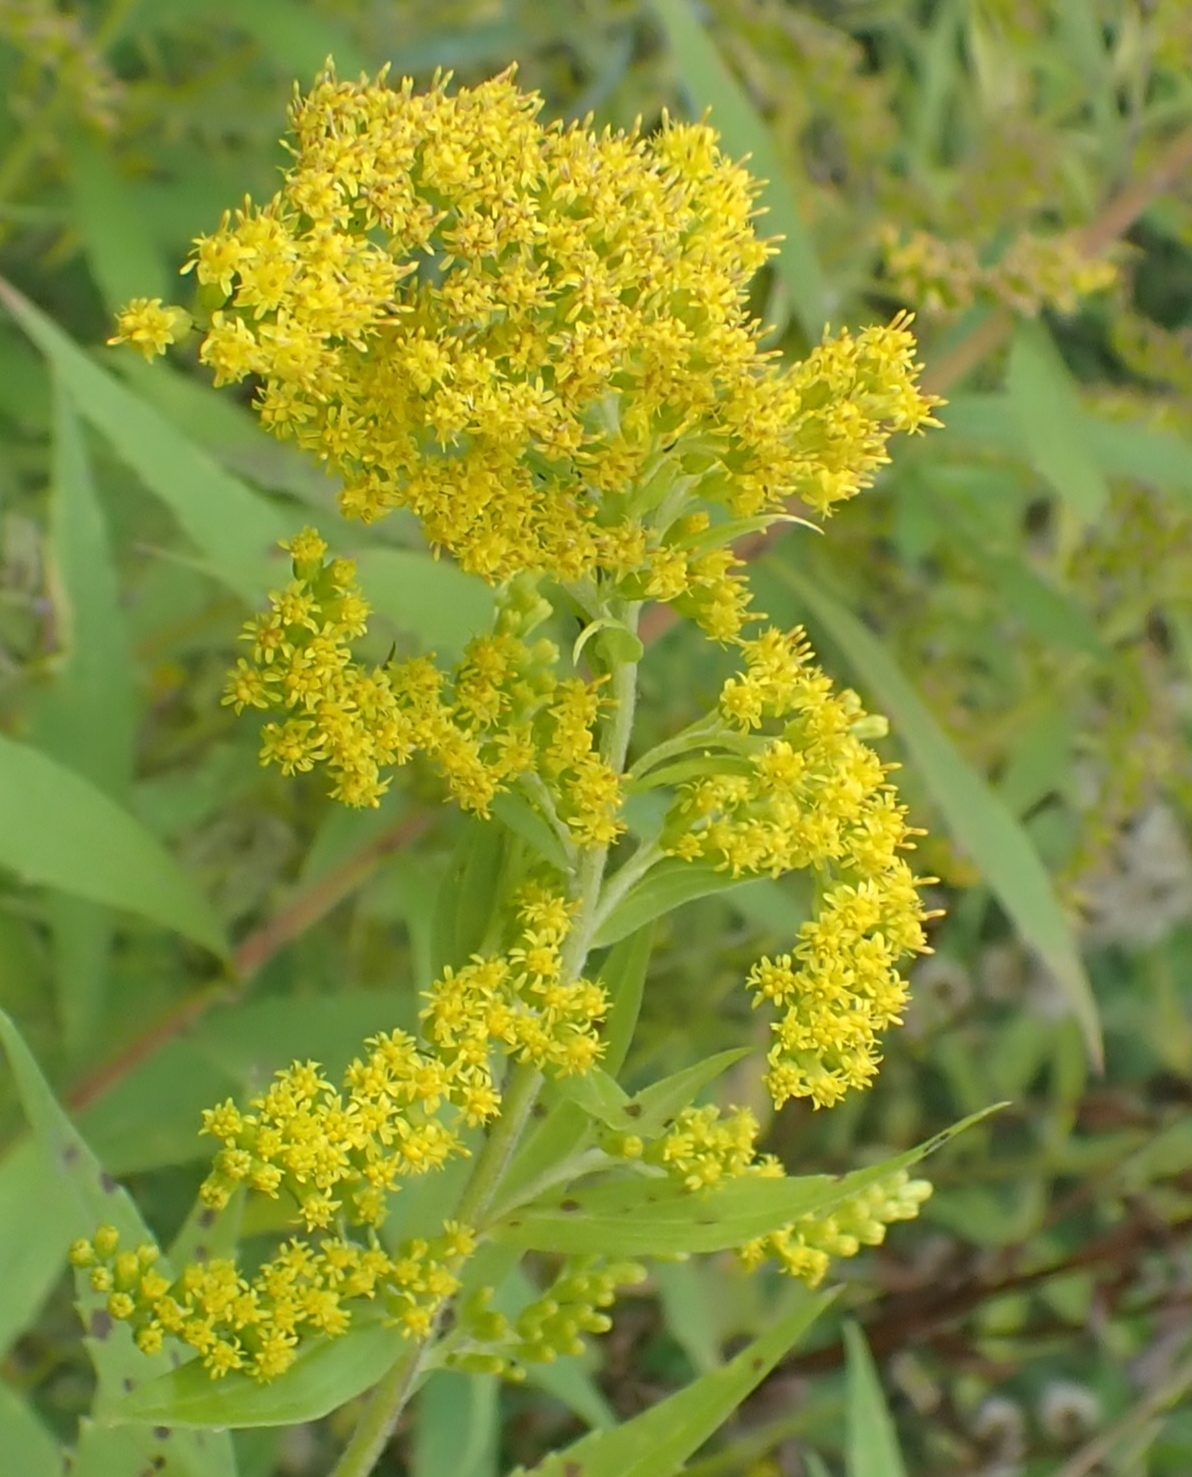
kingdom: Plantae
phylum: Tracheophyta
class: Magnoliopsida
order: Asterales
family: Asteraceae
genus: Solidago
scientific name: Solidago canadensis
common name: Canada goldenrod
